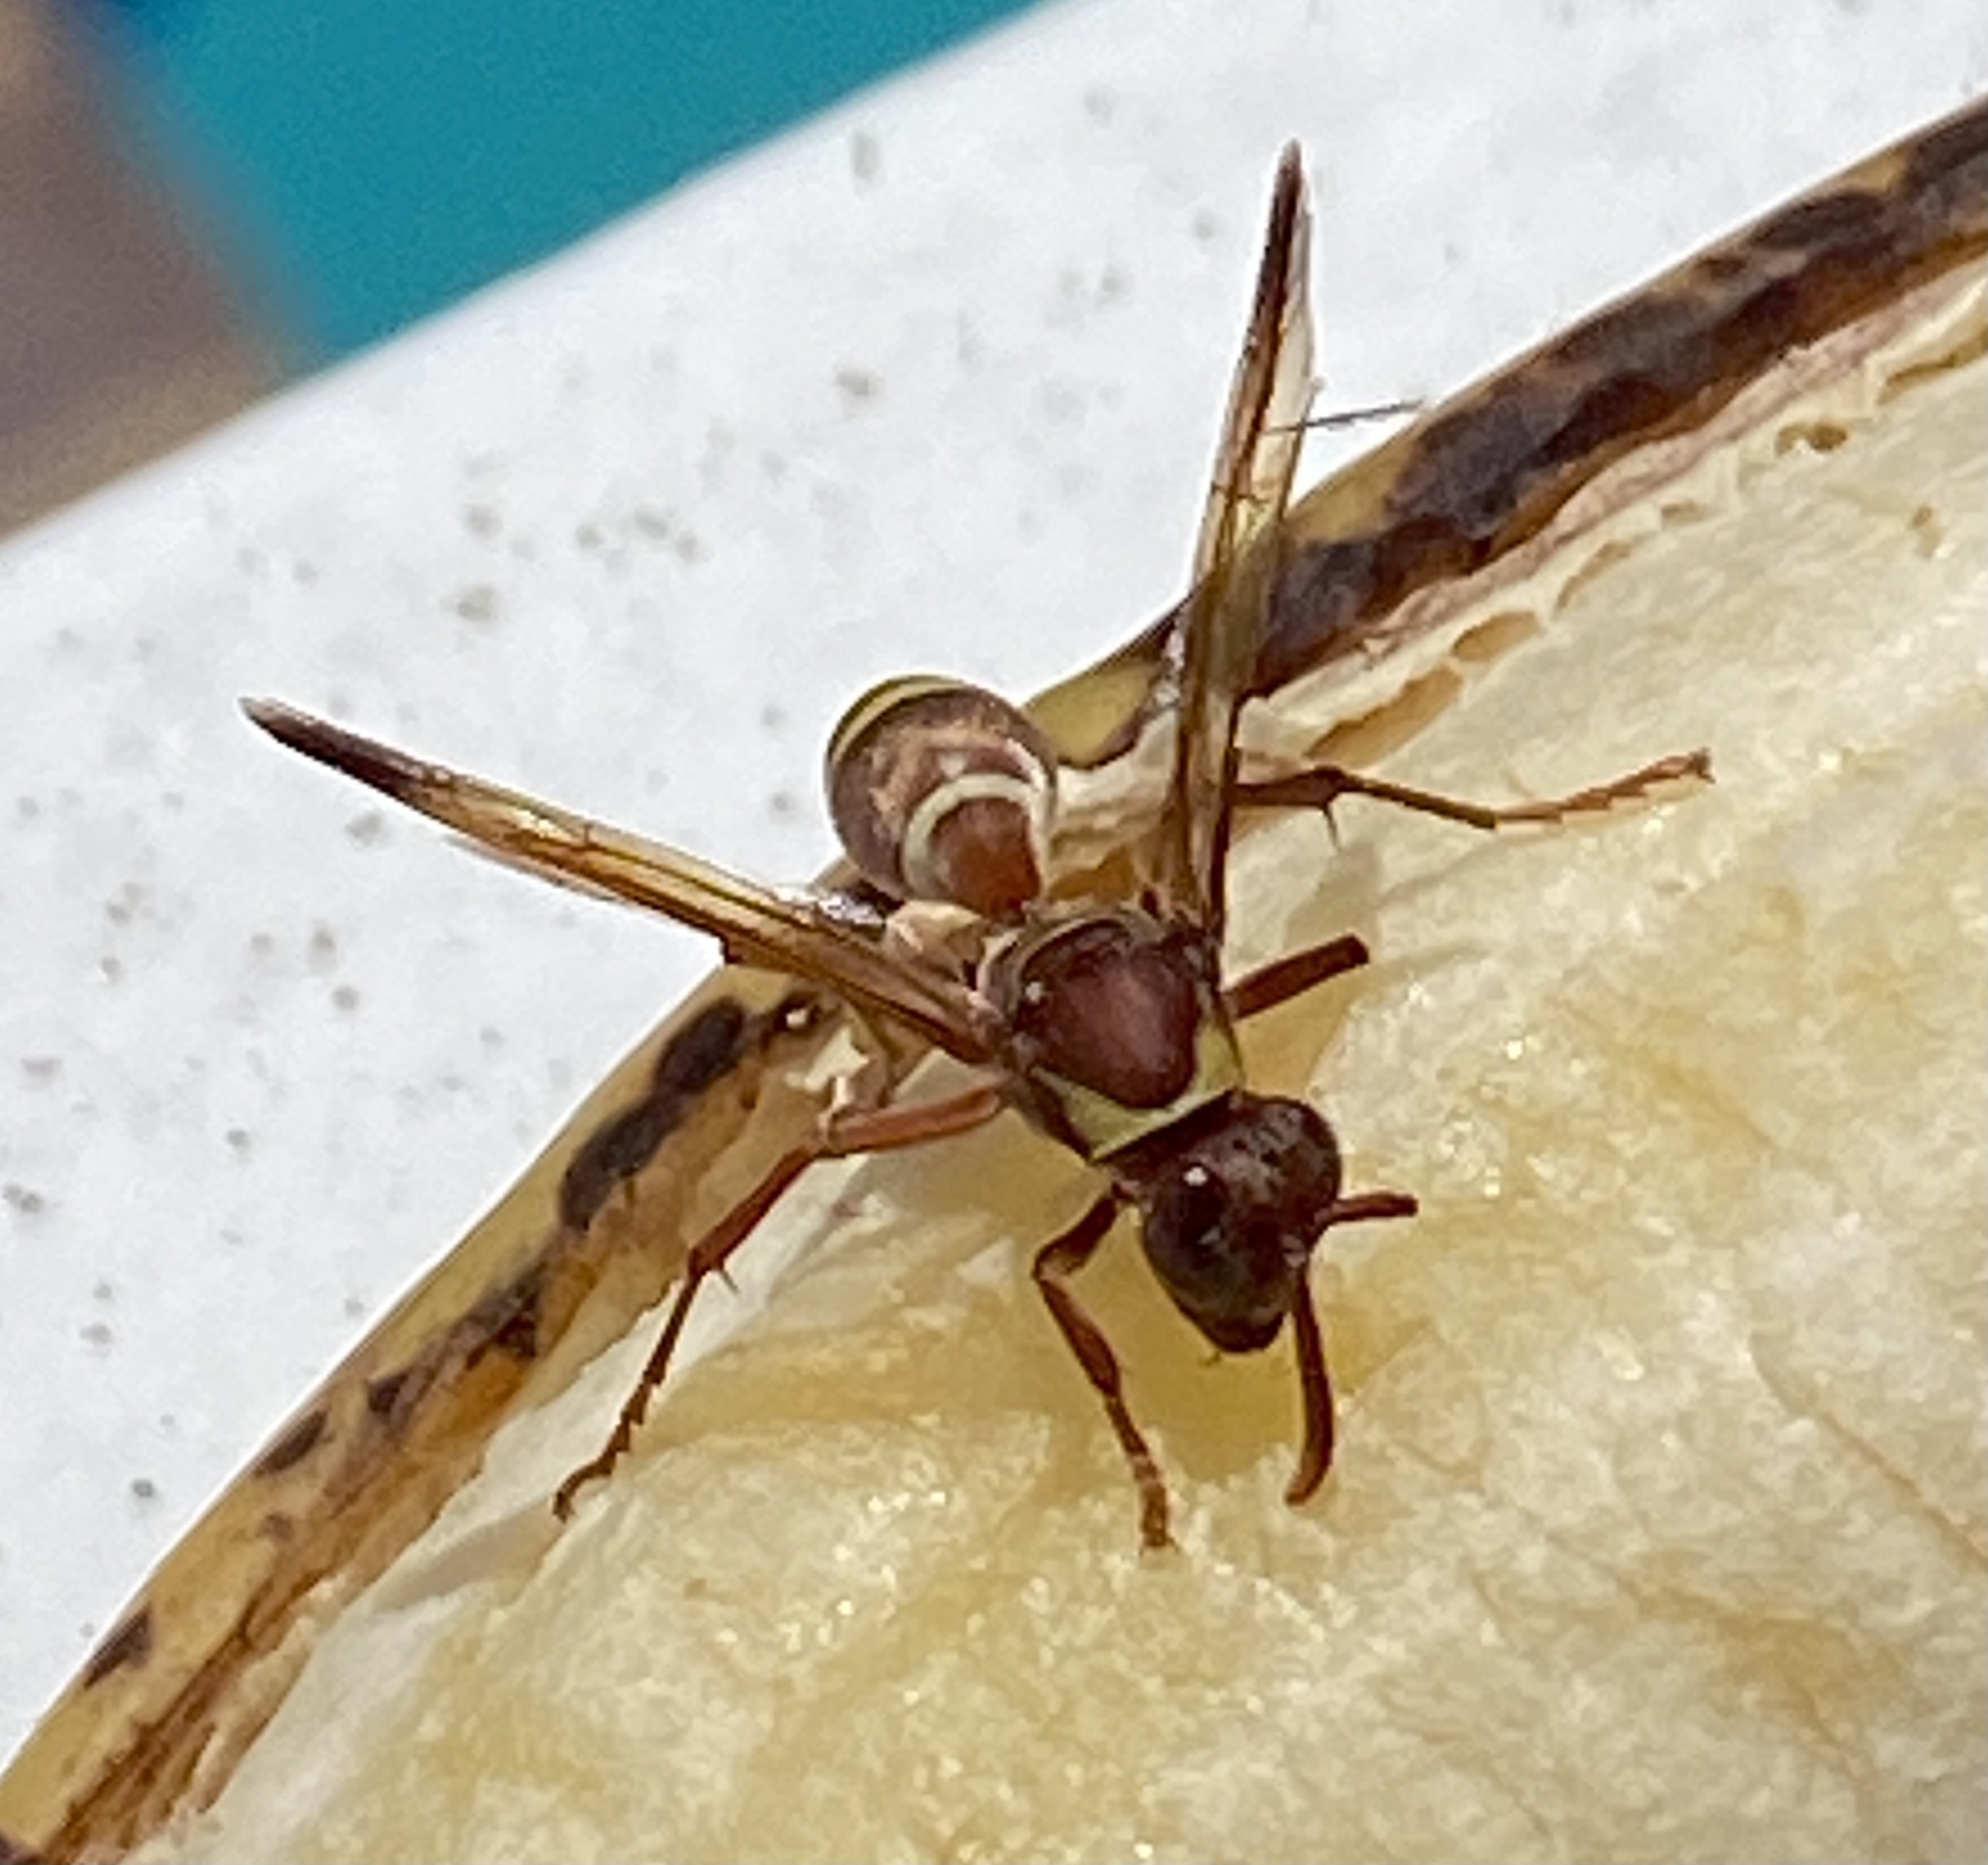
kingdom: Animalia
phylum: Arthropoda
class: Insecta
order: Hymenoptera
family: Eumenidae
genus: Polistes
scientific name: Polistes badius
